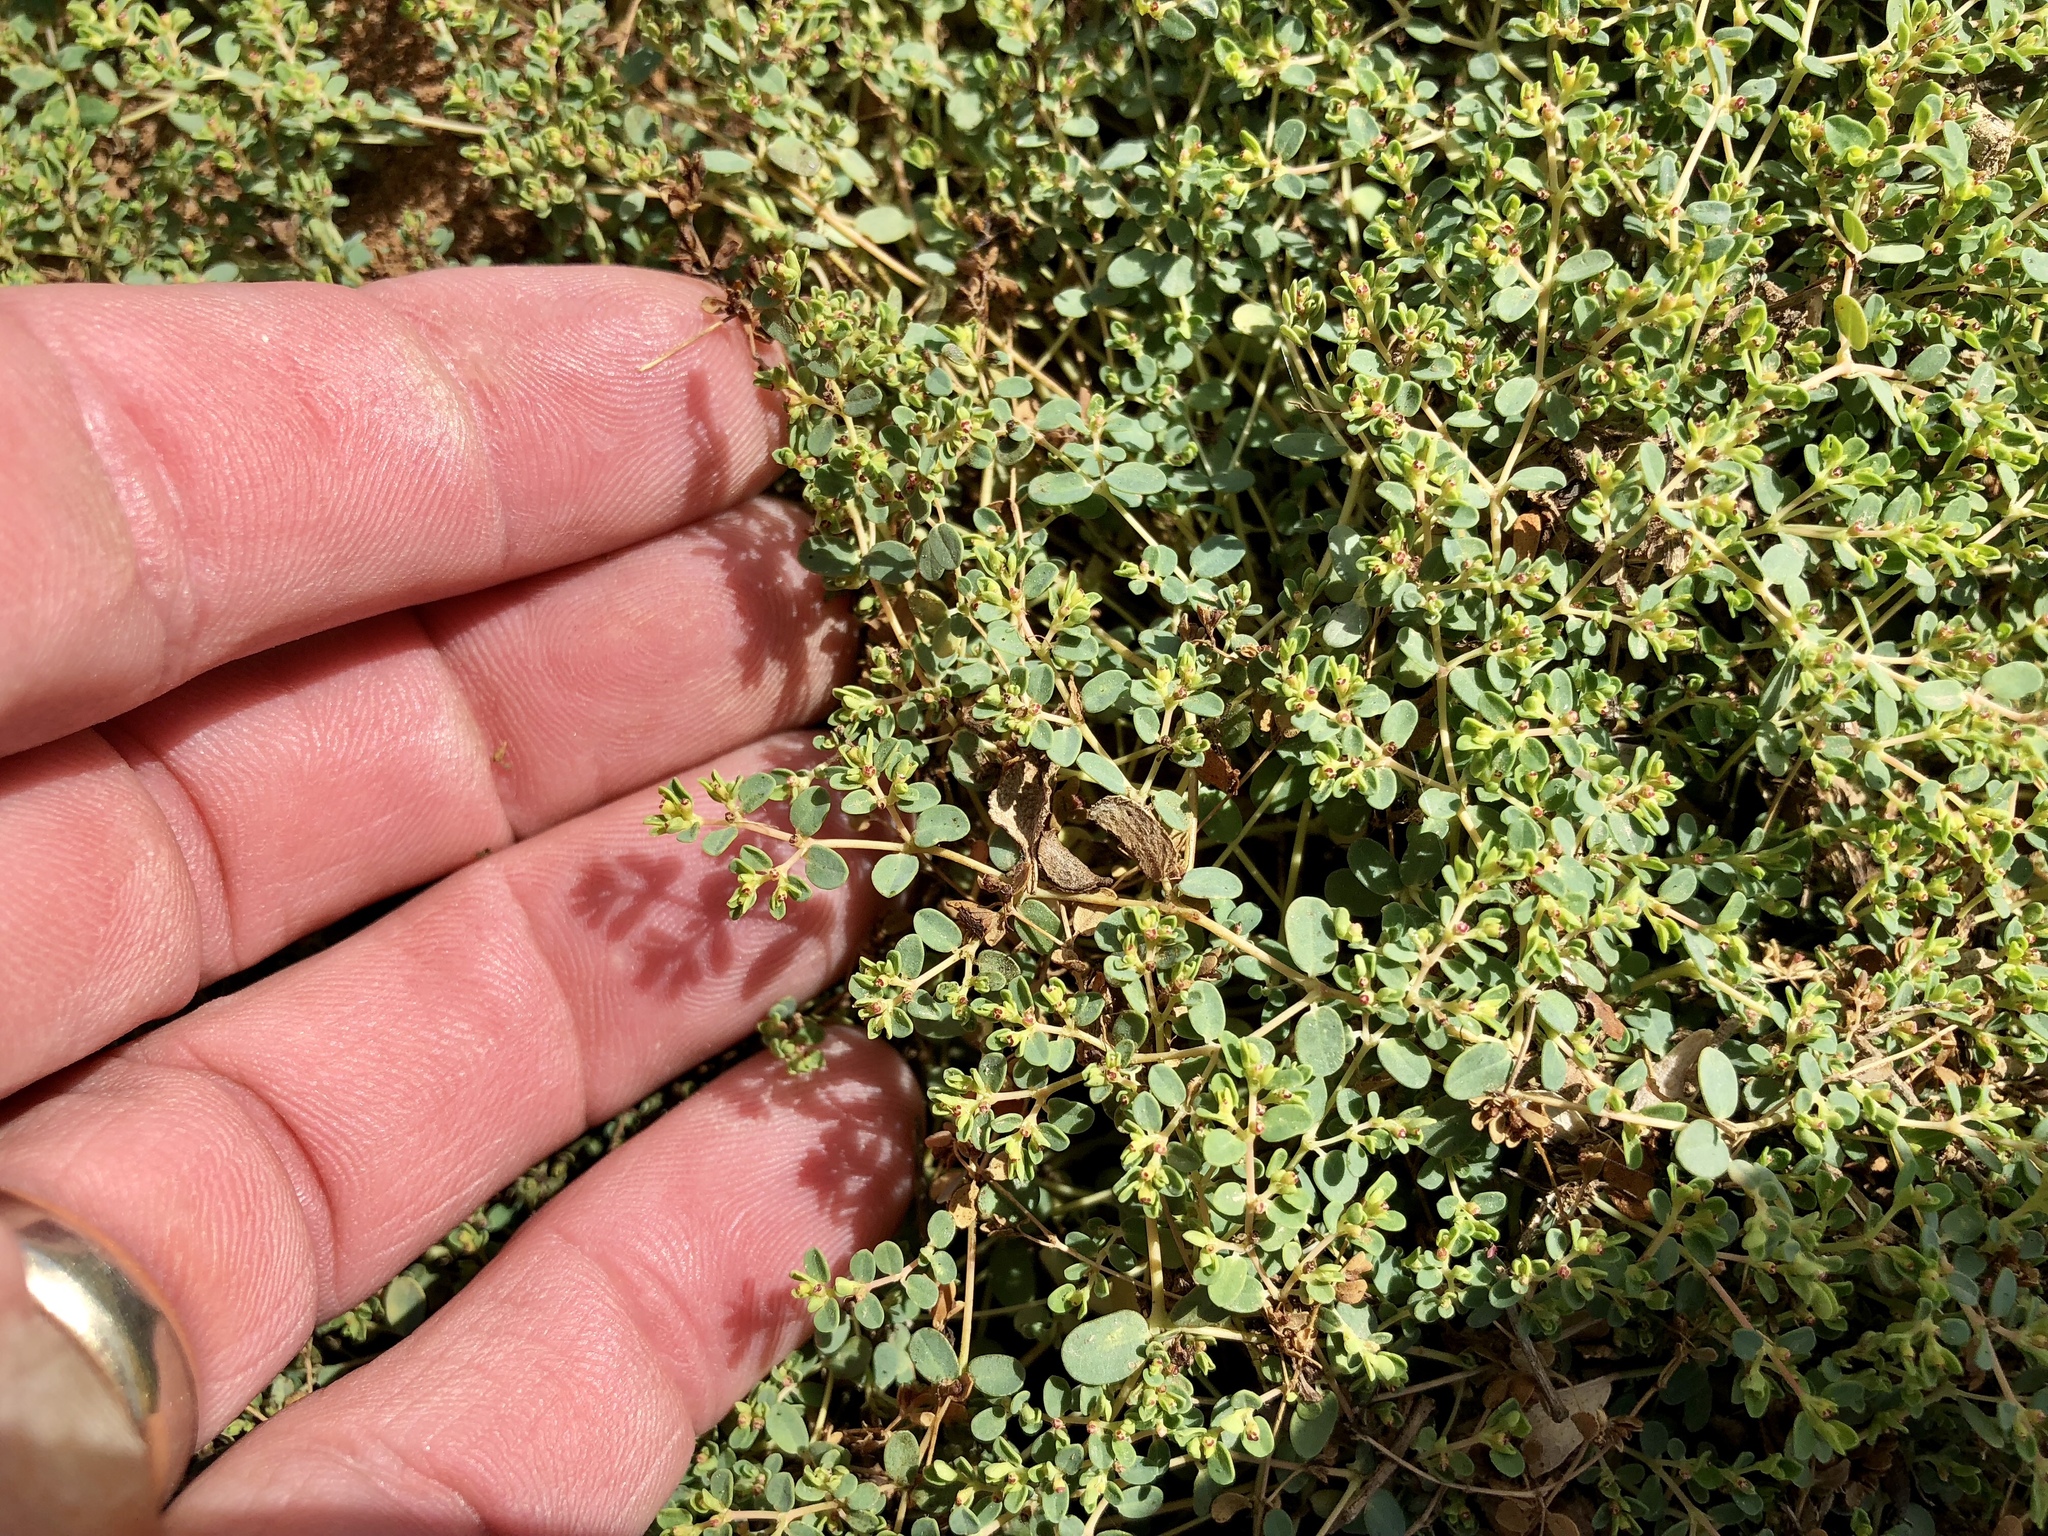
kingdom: Plantae
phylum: Tracheophyta
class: Magnoliopsida
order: Malpighiales
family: Euphorbiaceae
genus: Euphorbia
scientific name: Euphorbia polycarpa
